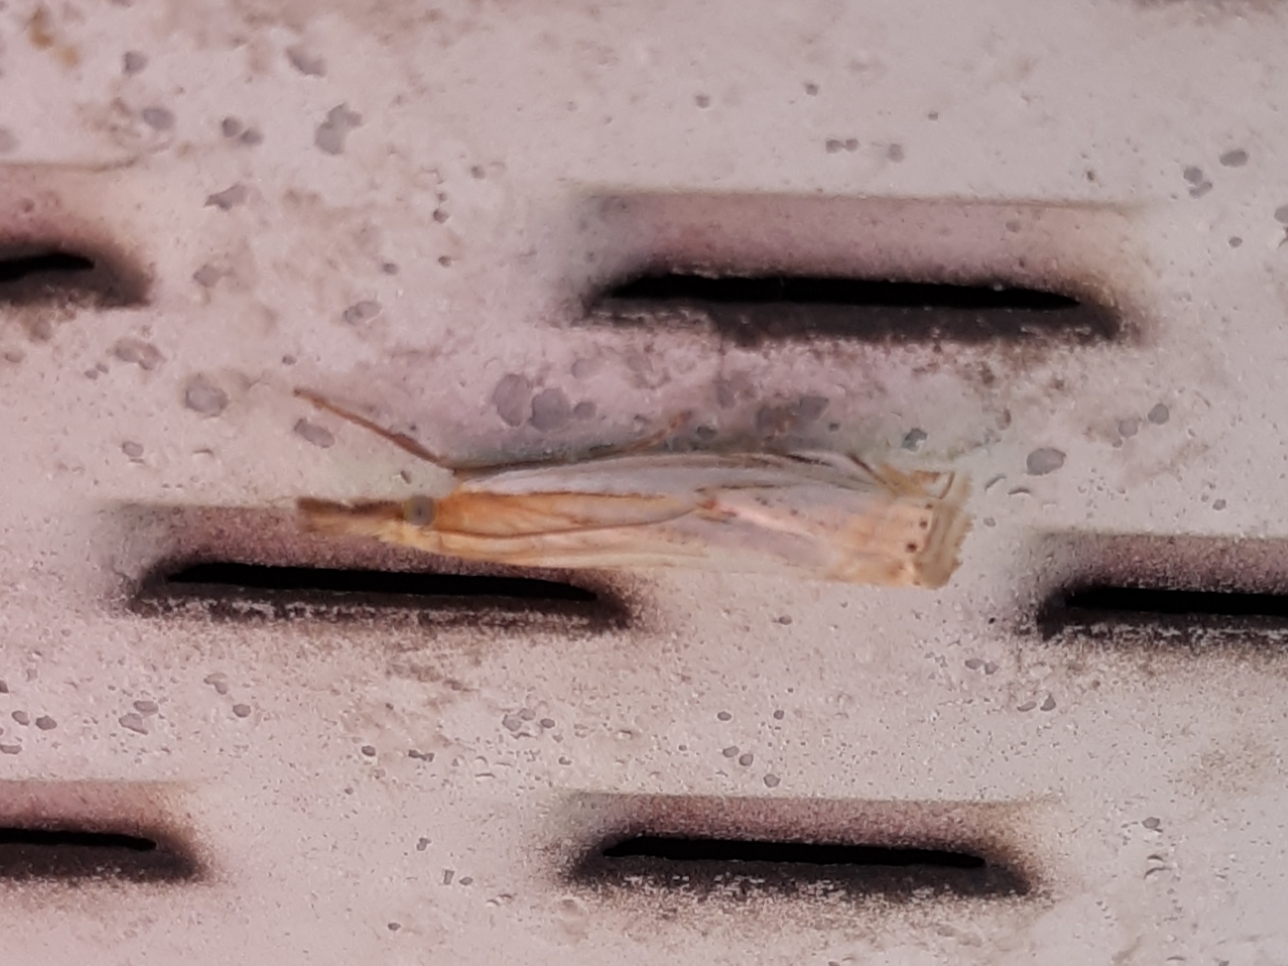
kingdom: Animalia
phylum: Arthropoda
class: Insecta
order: Lepidoptera
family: Crambidae
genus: Crambus
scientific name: Crambus agitatellus
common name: Double-banded grass-veneer
